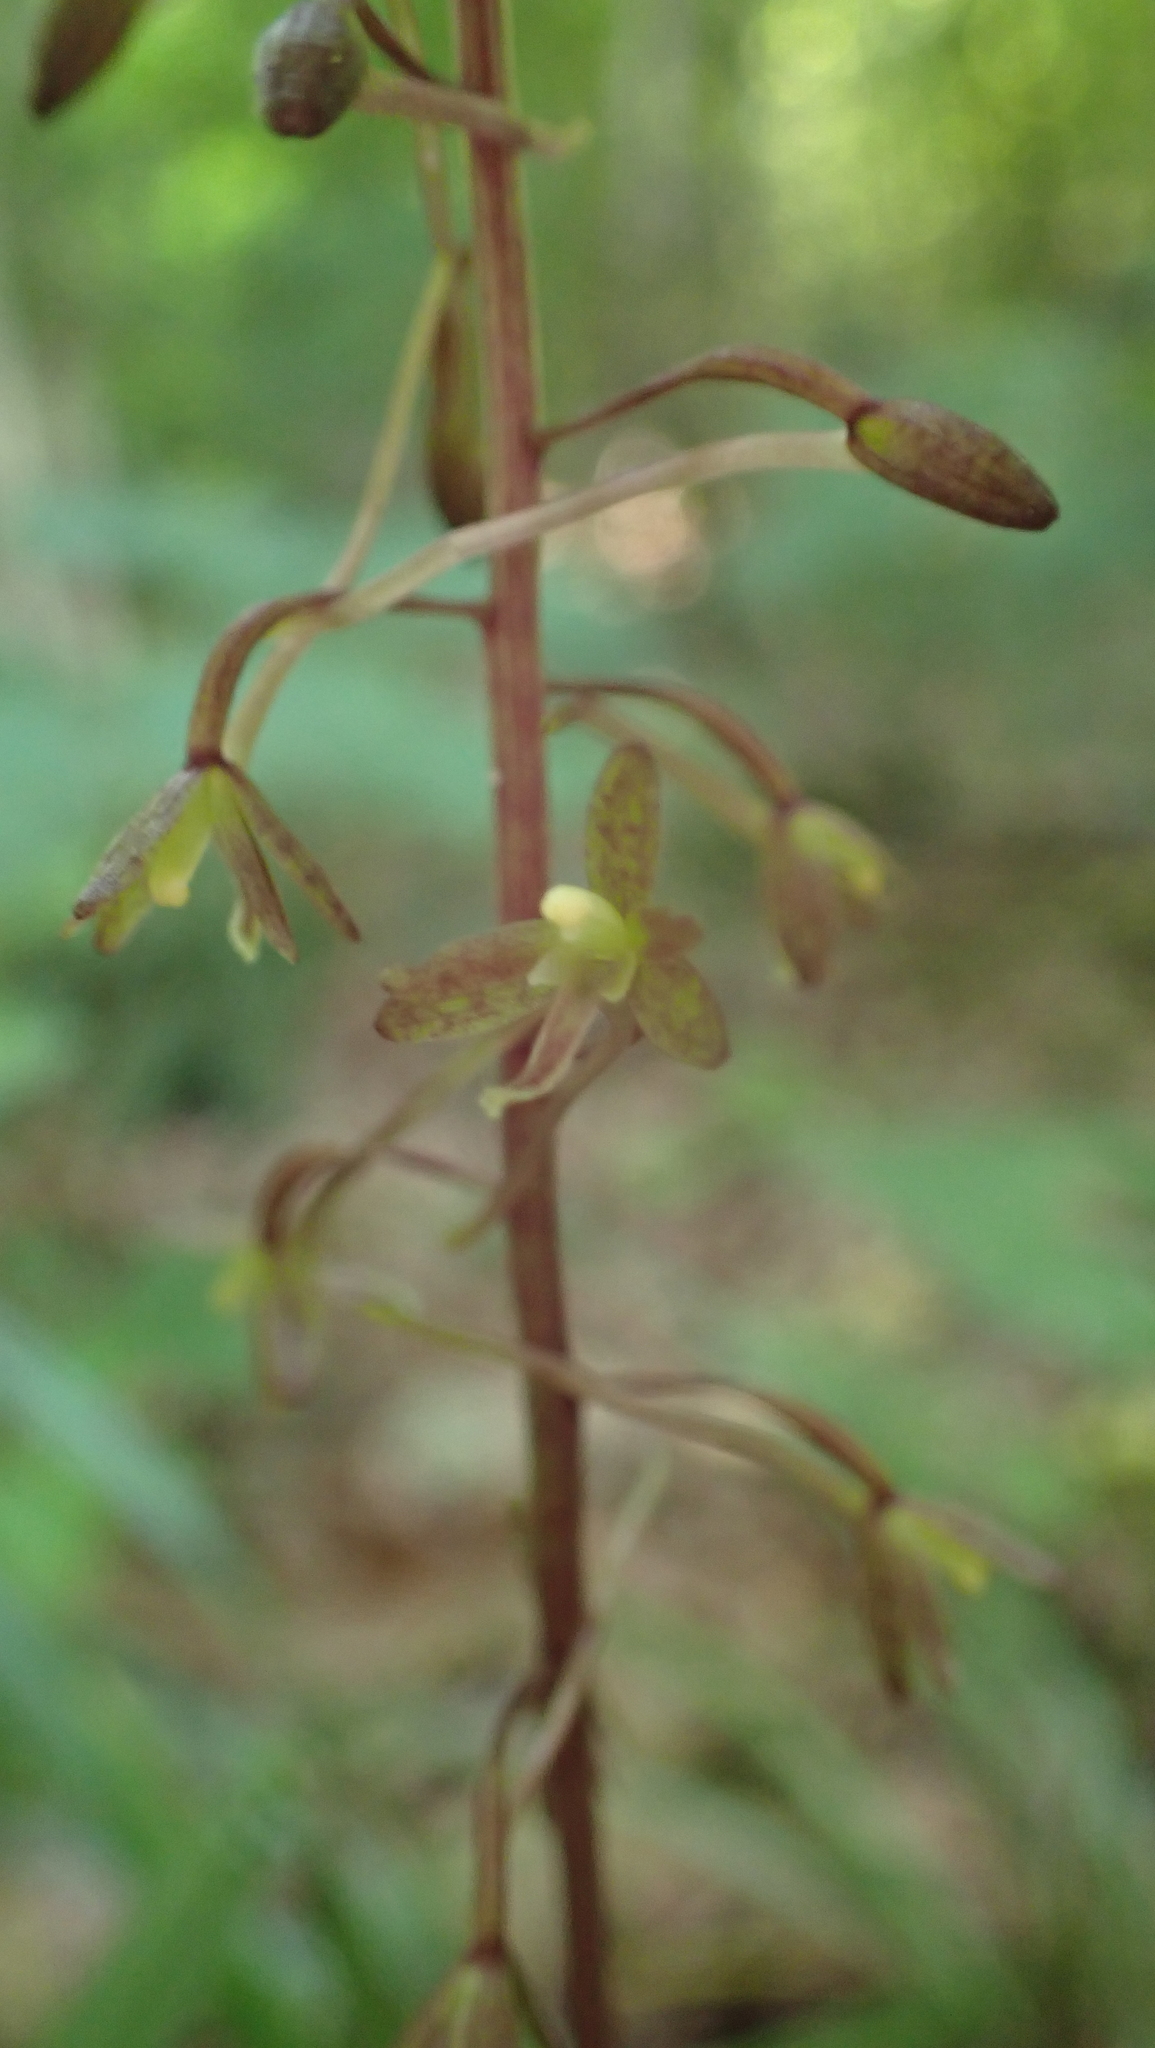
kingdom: Plantae
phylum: Tracheophyta
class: Liliopsida
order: Asparagales
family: Orchidaceae
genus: Tipularia
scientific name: Tipularia discolor
